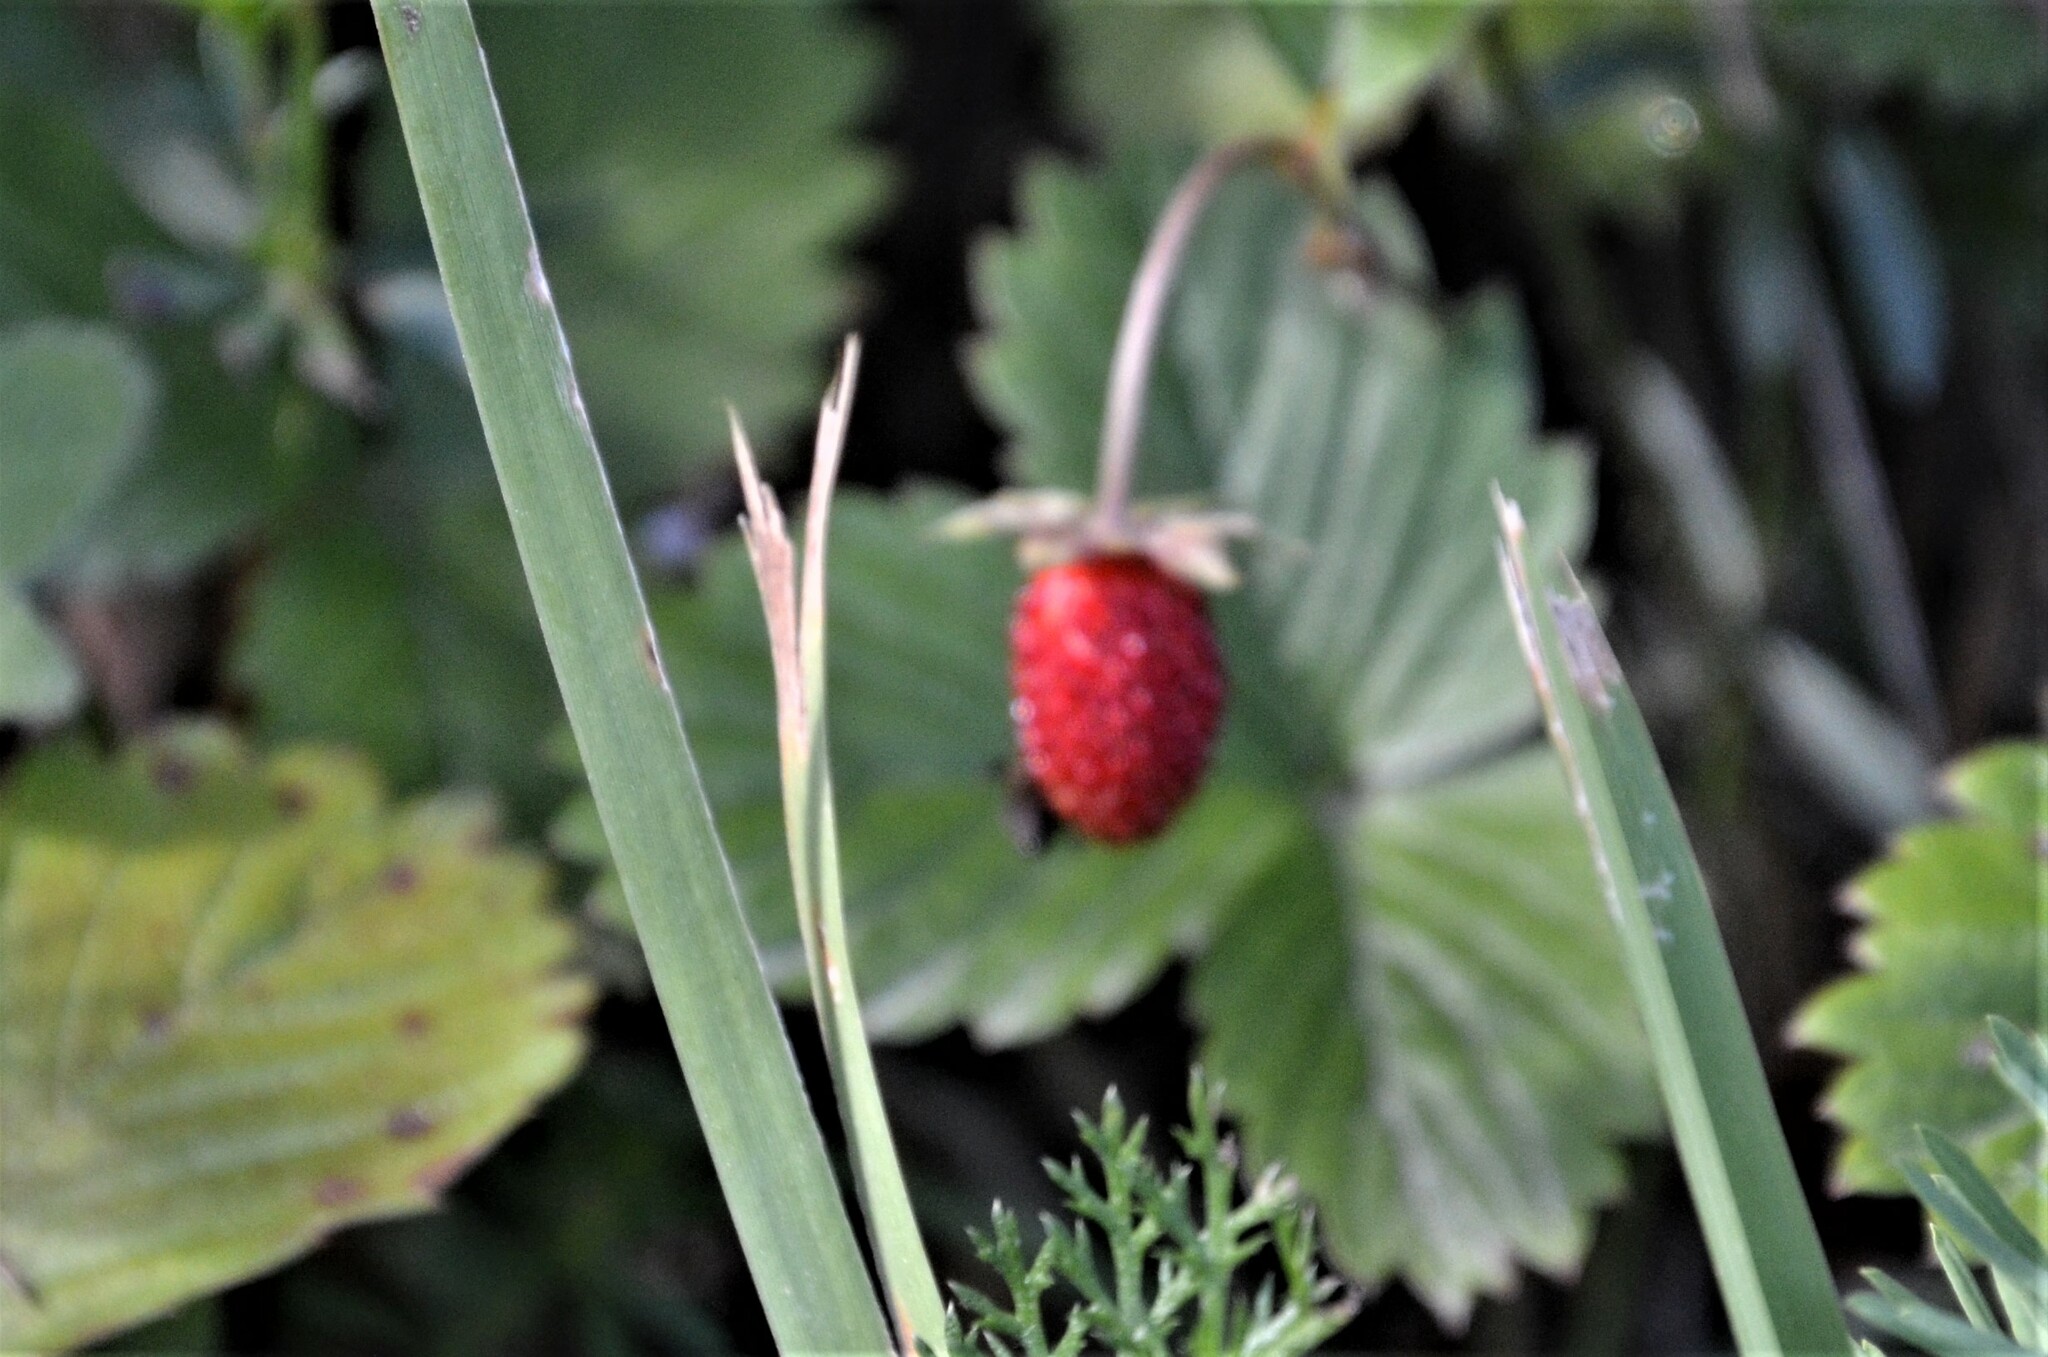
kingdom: Plantae
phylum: Tracheophyta
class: Magnoliopsida
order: Rosales
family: Rosaceae
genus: Fragaria
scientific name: Fragaria vesca
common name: Wild strawberry
